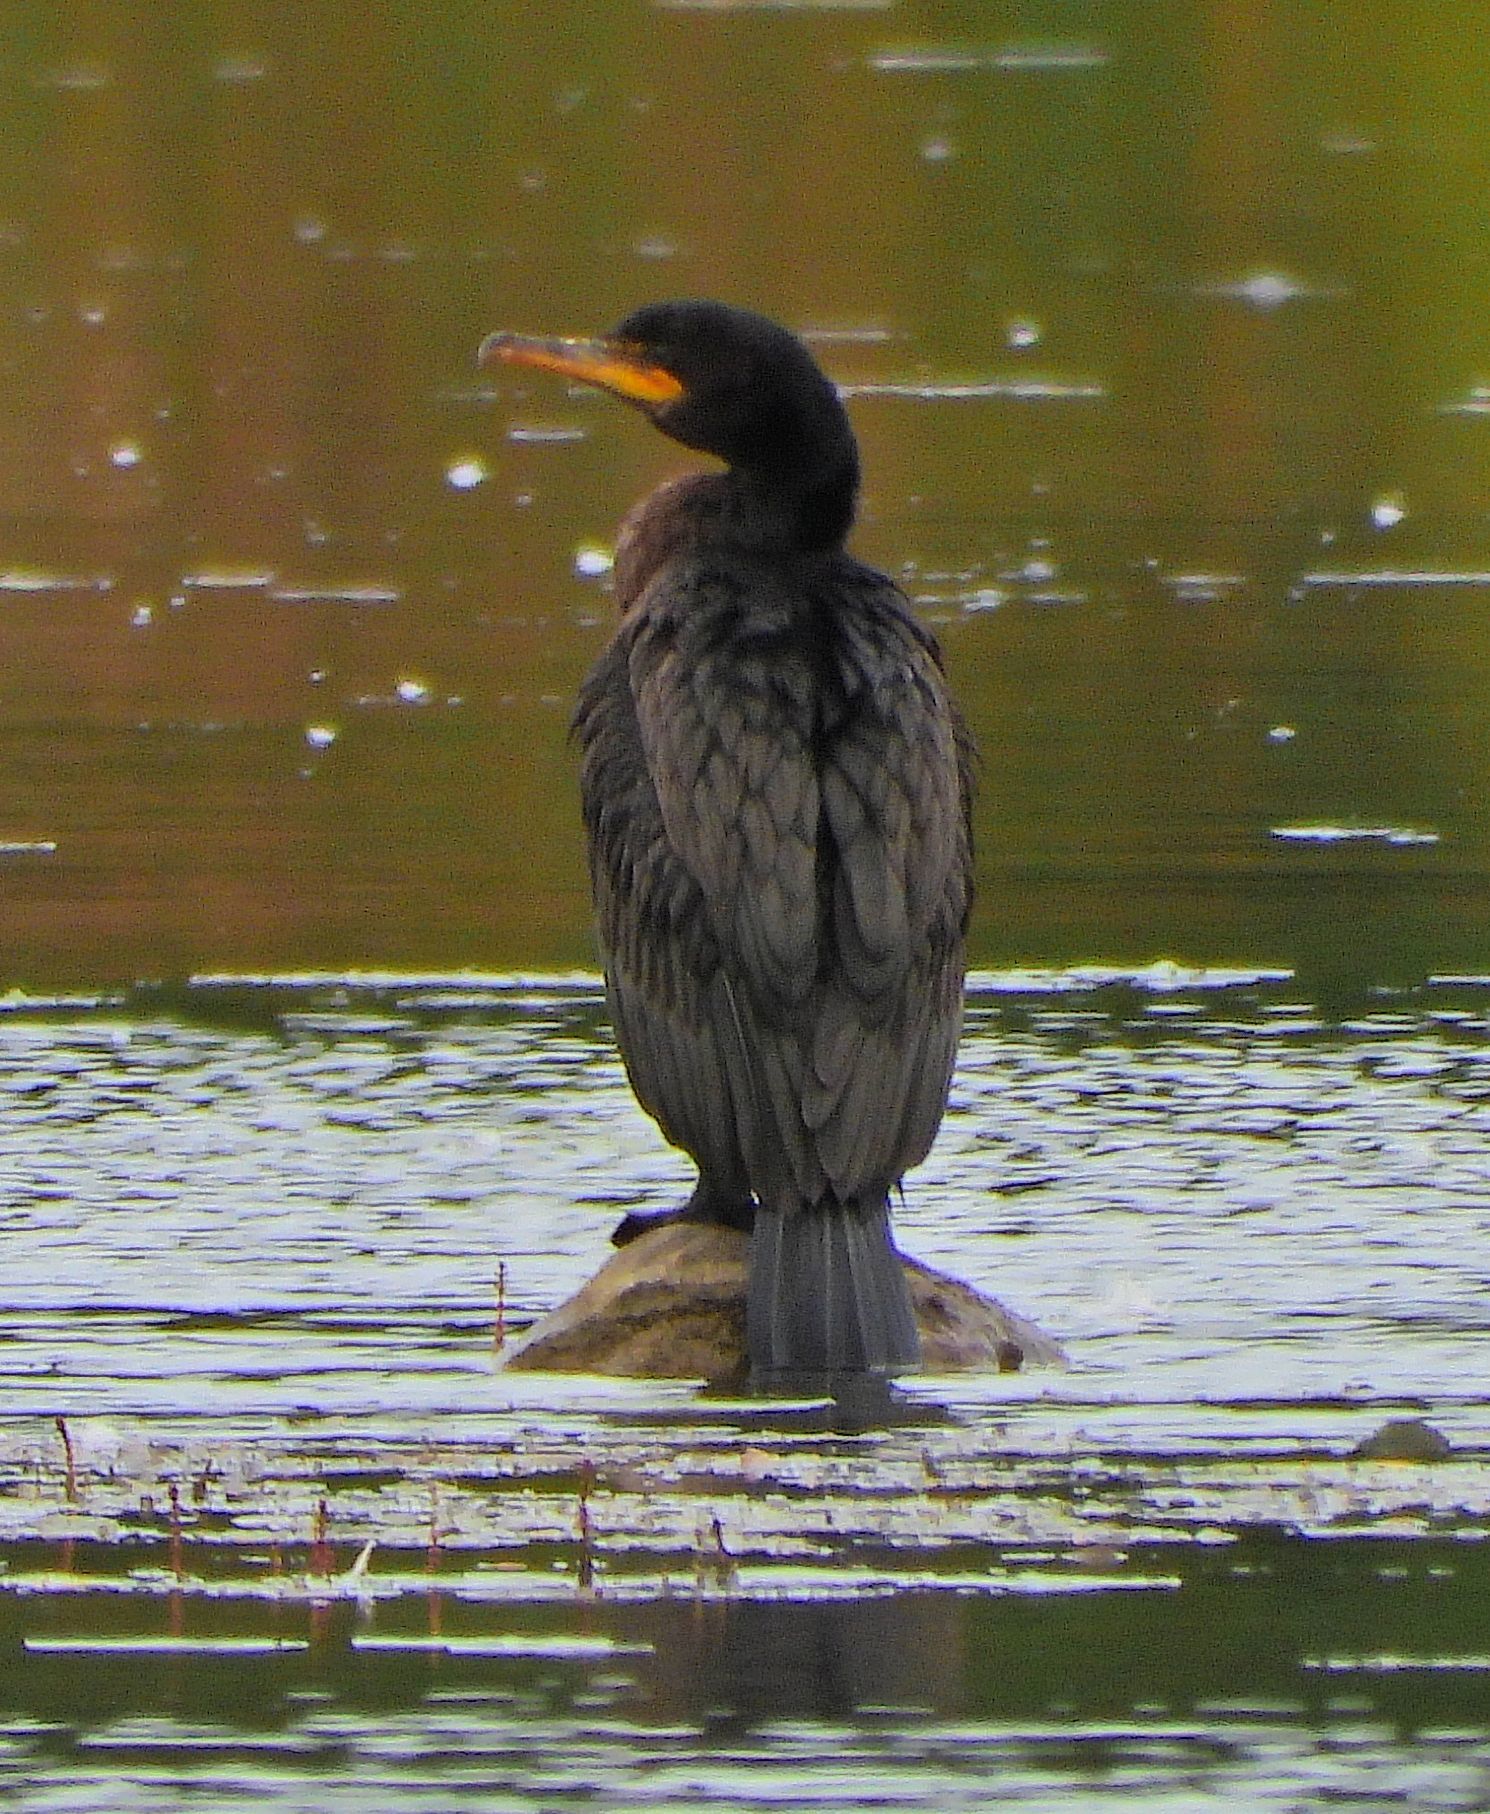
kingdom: Animalia
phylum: Chordata
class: Aves
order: Suliformes
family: Phalacrocoracidae
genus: Phalacrocorax
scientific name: Phalacrocorax auritus
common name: Double-crested cormorant
